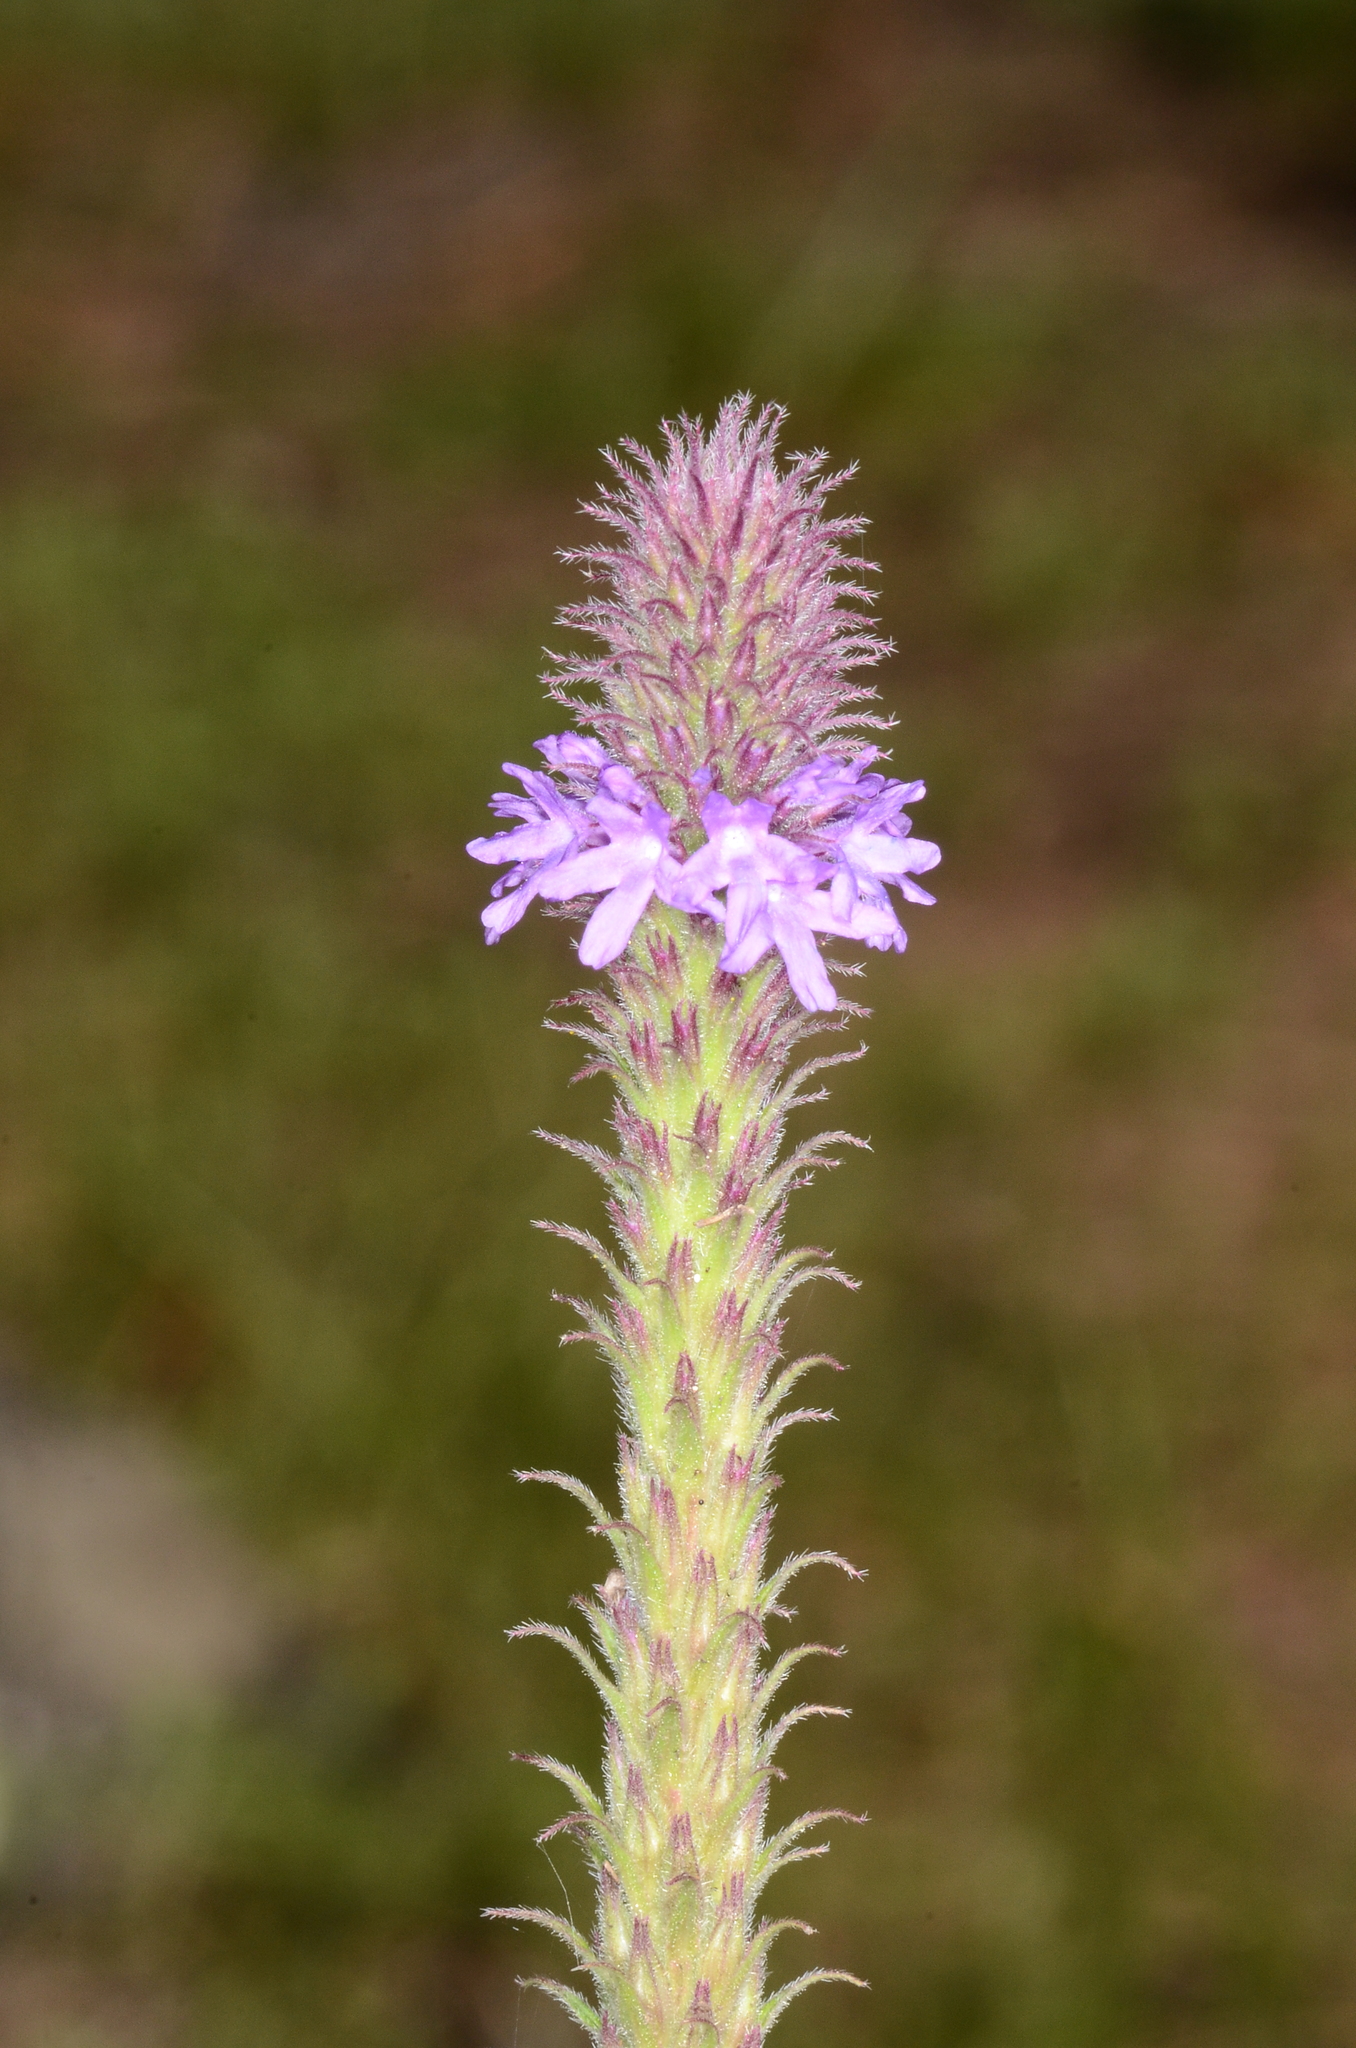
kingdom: Plantae
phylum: Tracheophyta
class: Magnoliopsida
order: Lamiales
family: Verbenaceae
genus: Verbena
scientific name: Verbena macdougalii
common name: New mexico vervain
